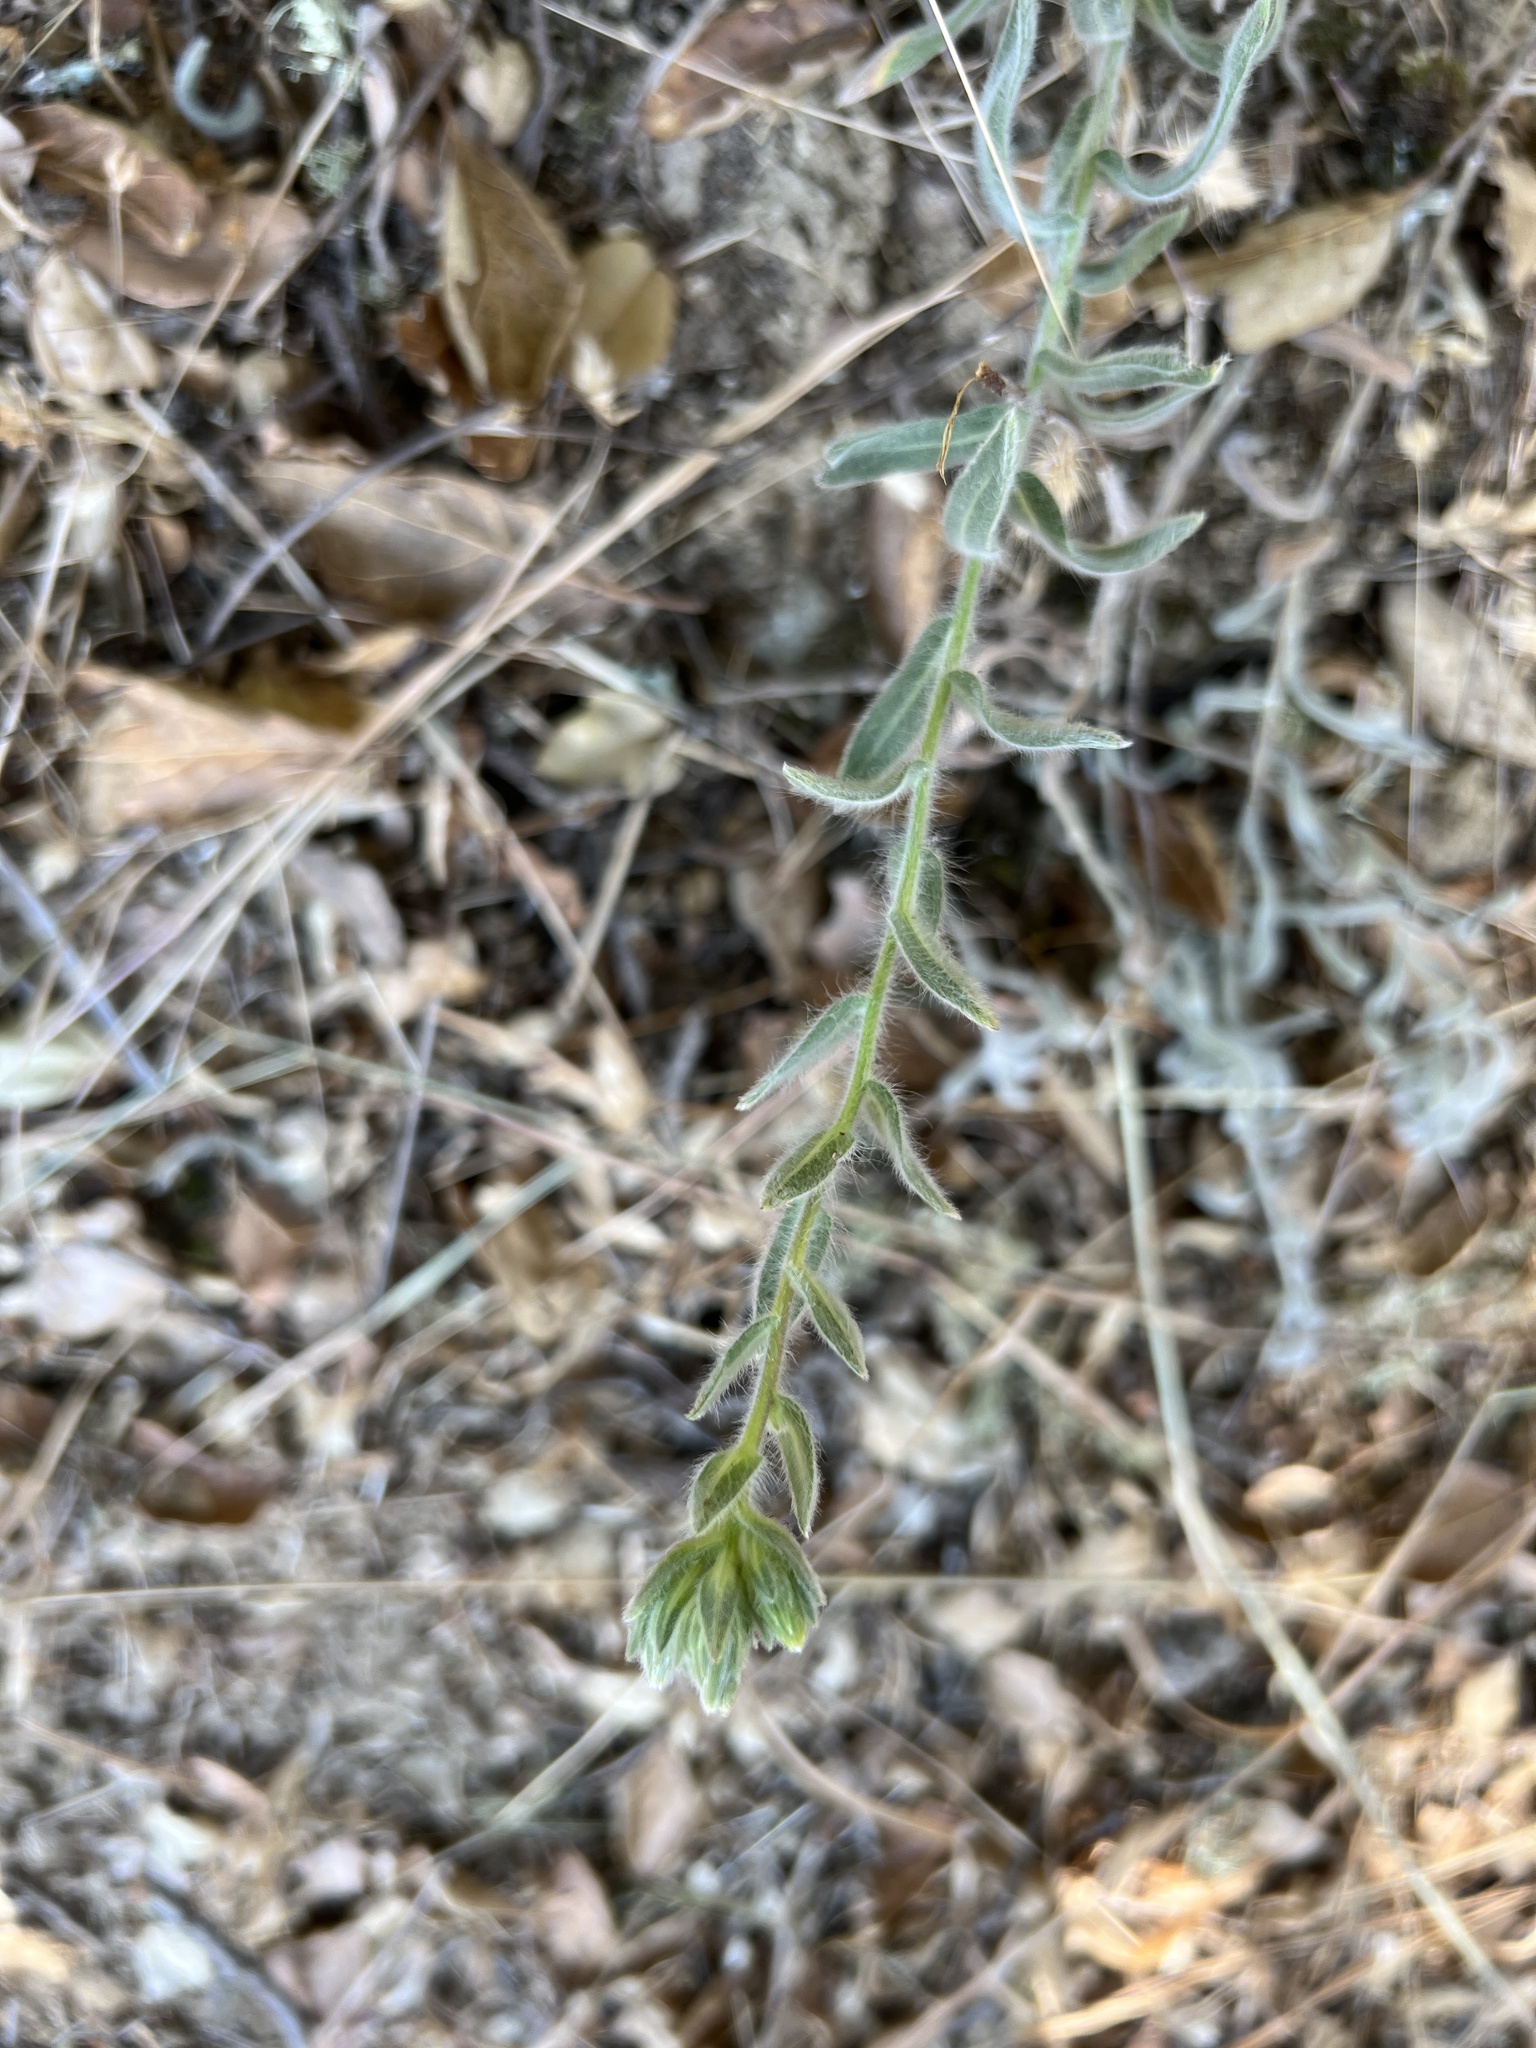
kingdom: Plantae
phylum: Tracheophyta
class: Magnoliopsida
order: Asterales
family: Asteraceae
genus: Heterotheca
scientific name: Heterotheca villosissima
